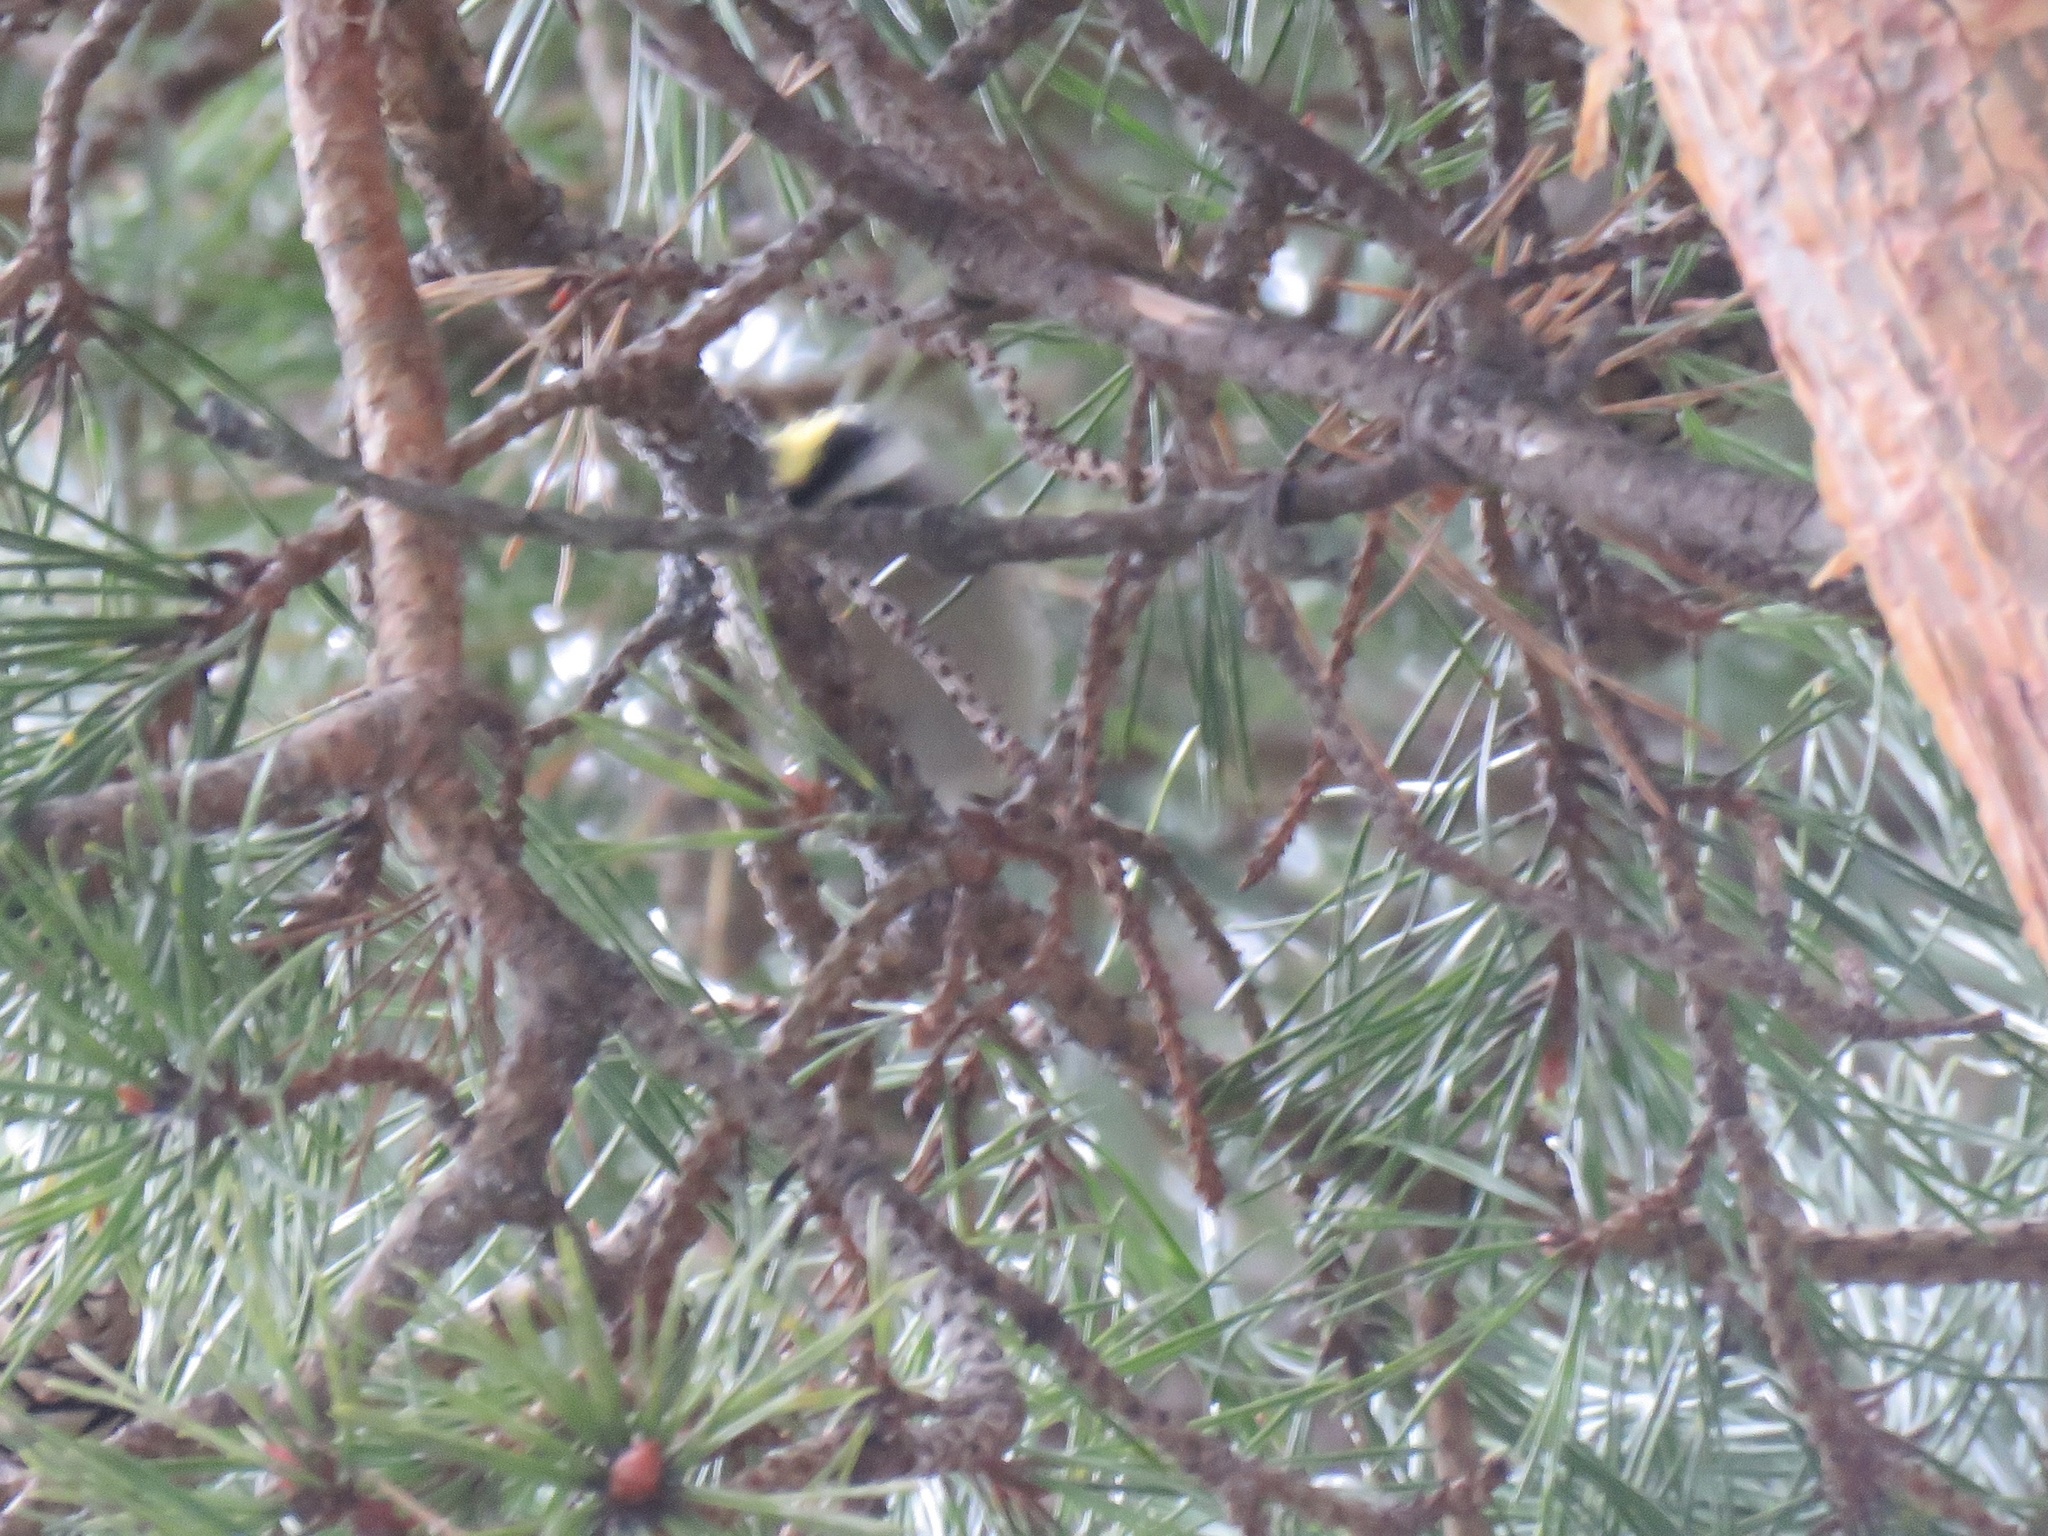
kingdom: Animalia
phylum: Chordata
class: Aves
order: Passeriformes
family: Regulidae
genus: Regulus
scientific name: Regulus satrapa
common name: Golden-crowned kinglet
